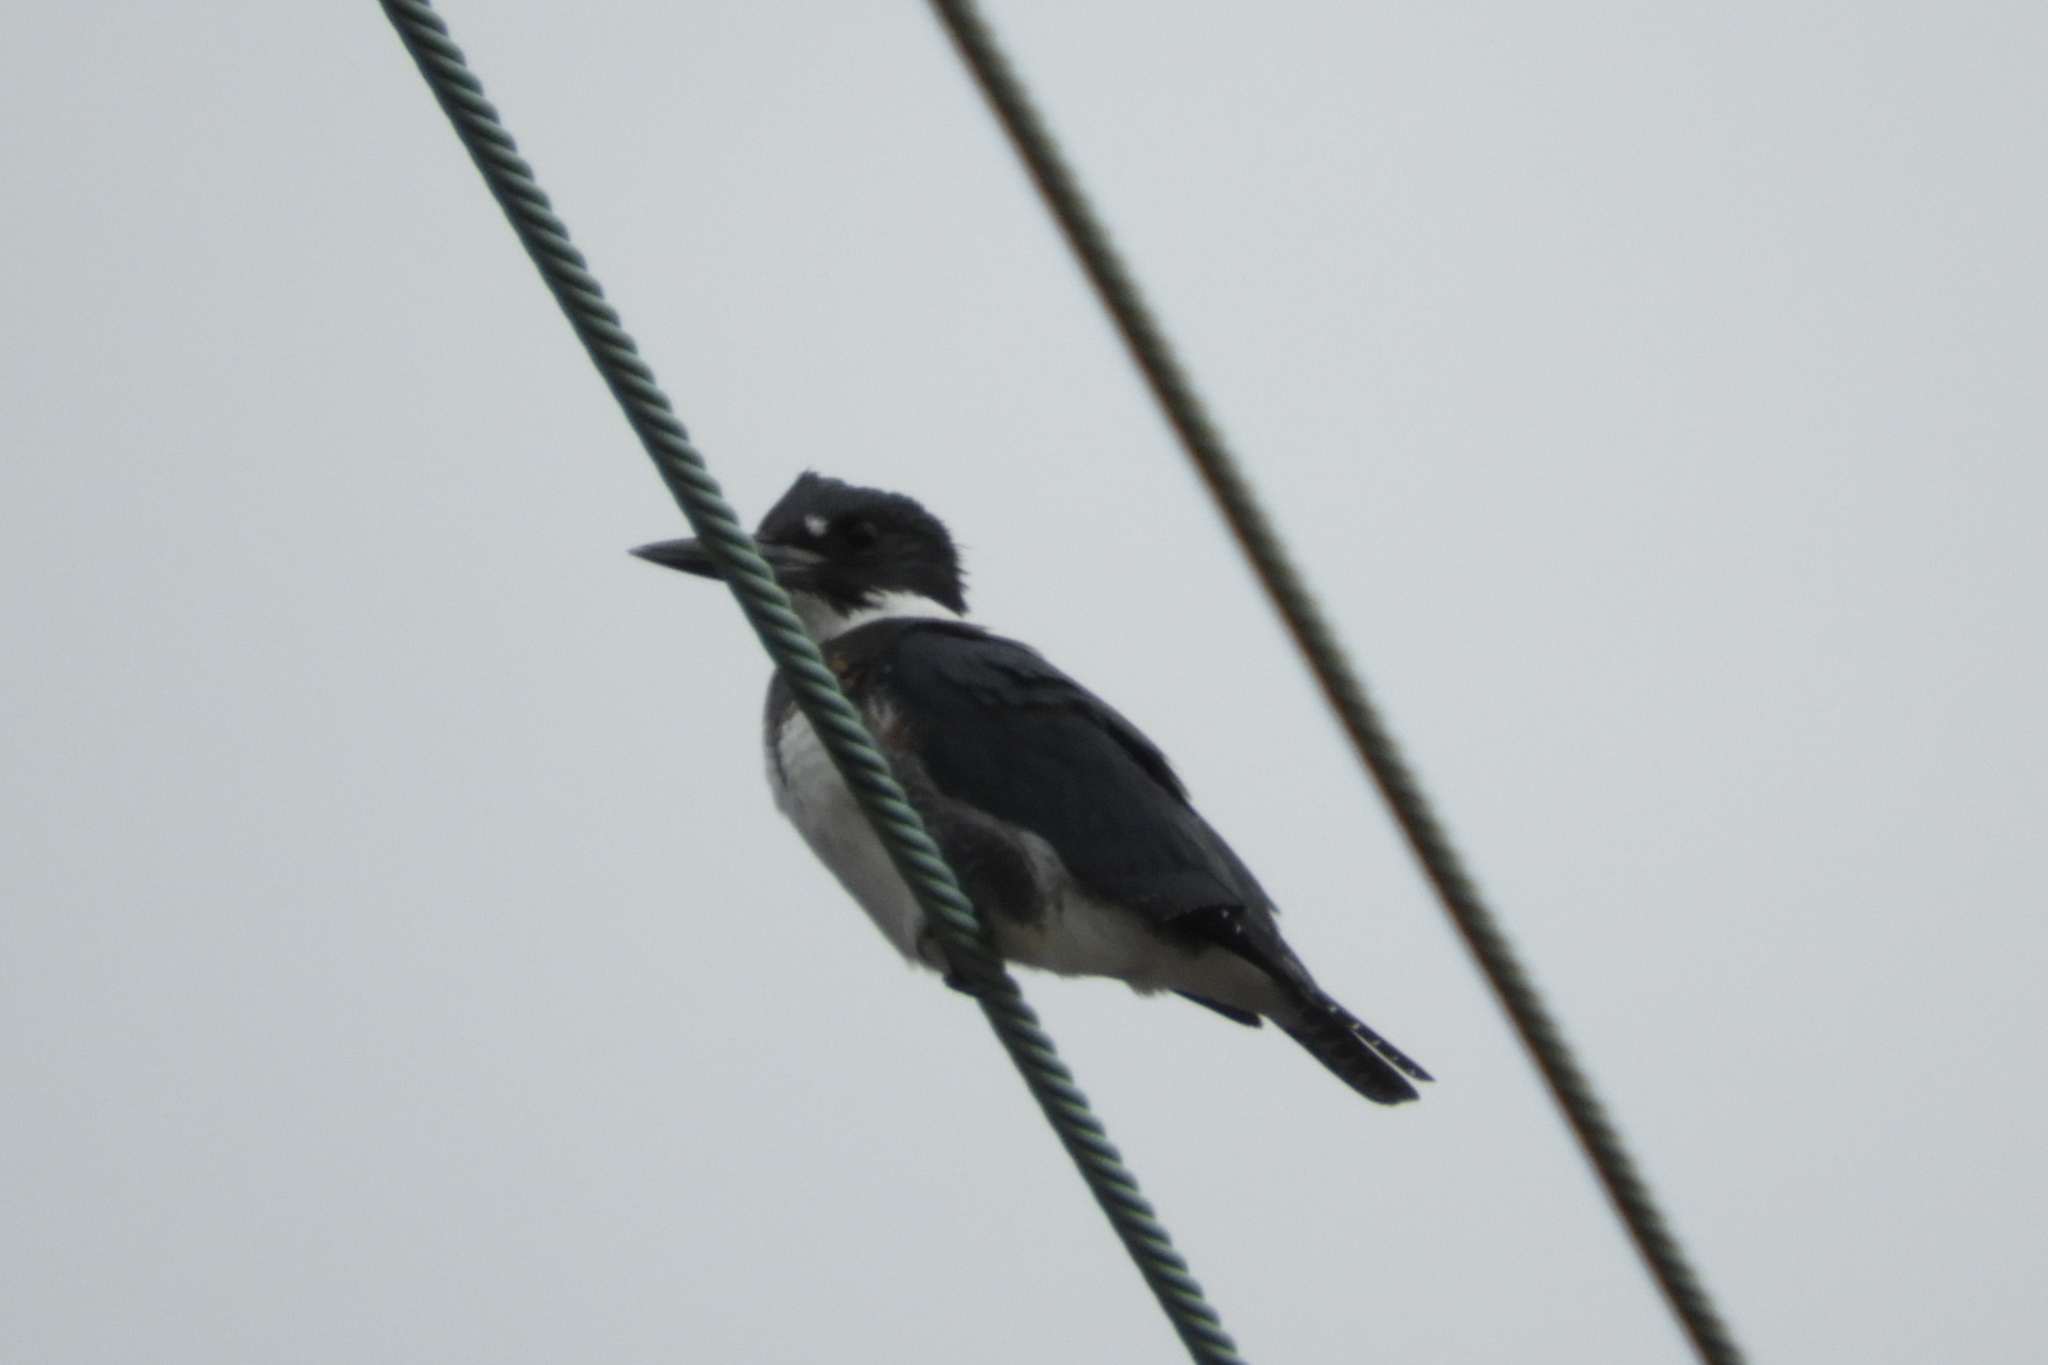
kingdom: Animalia
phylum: Chordata
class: Aves
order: Coraciiformes
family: Alcedinidae
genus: Megaceryle
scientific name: Megaceryle alcyon
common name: Belted kingfisher
